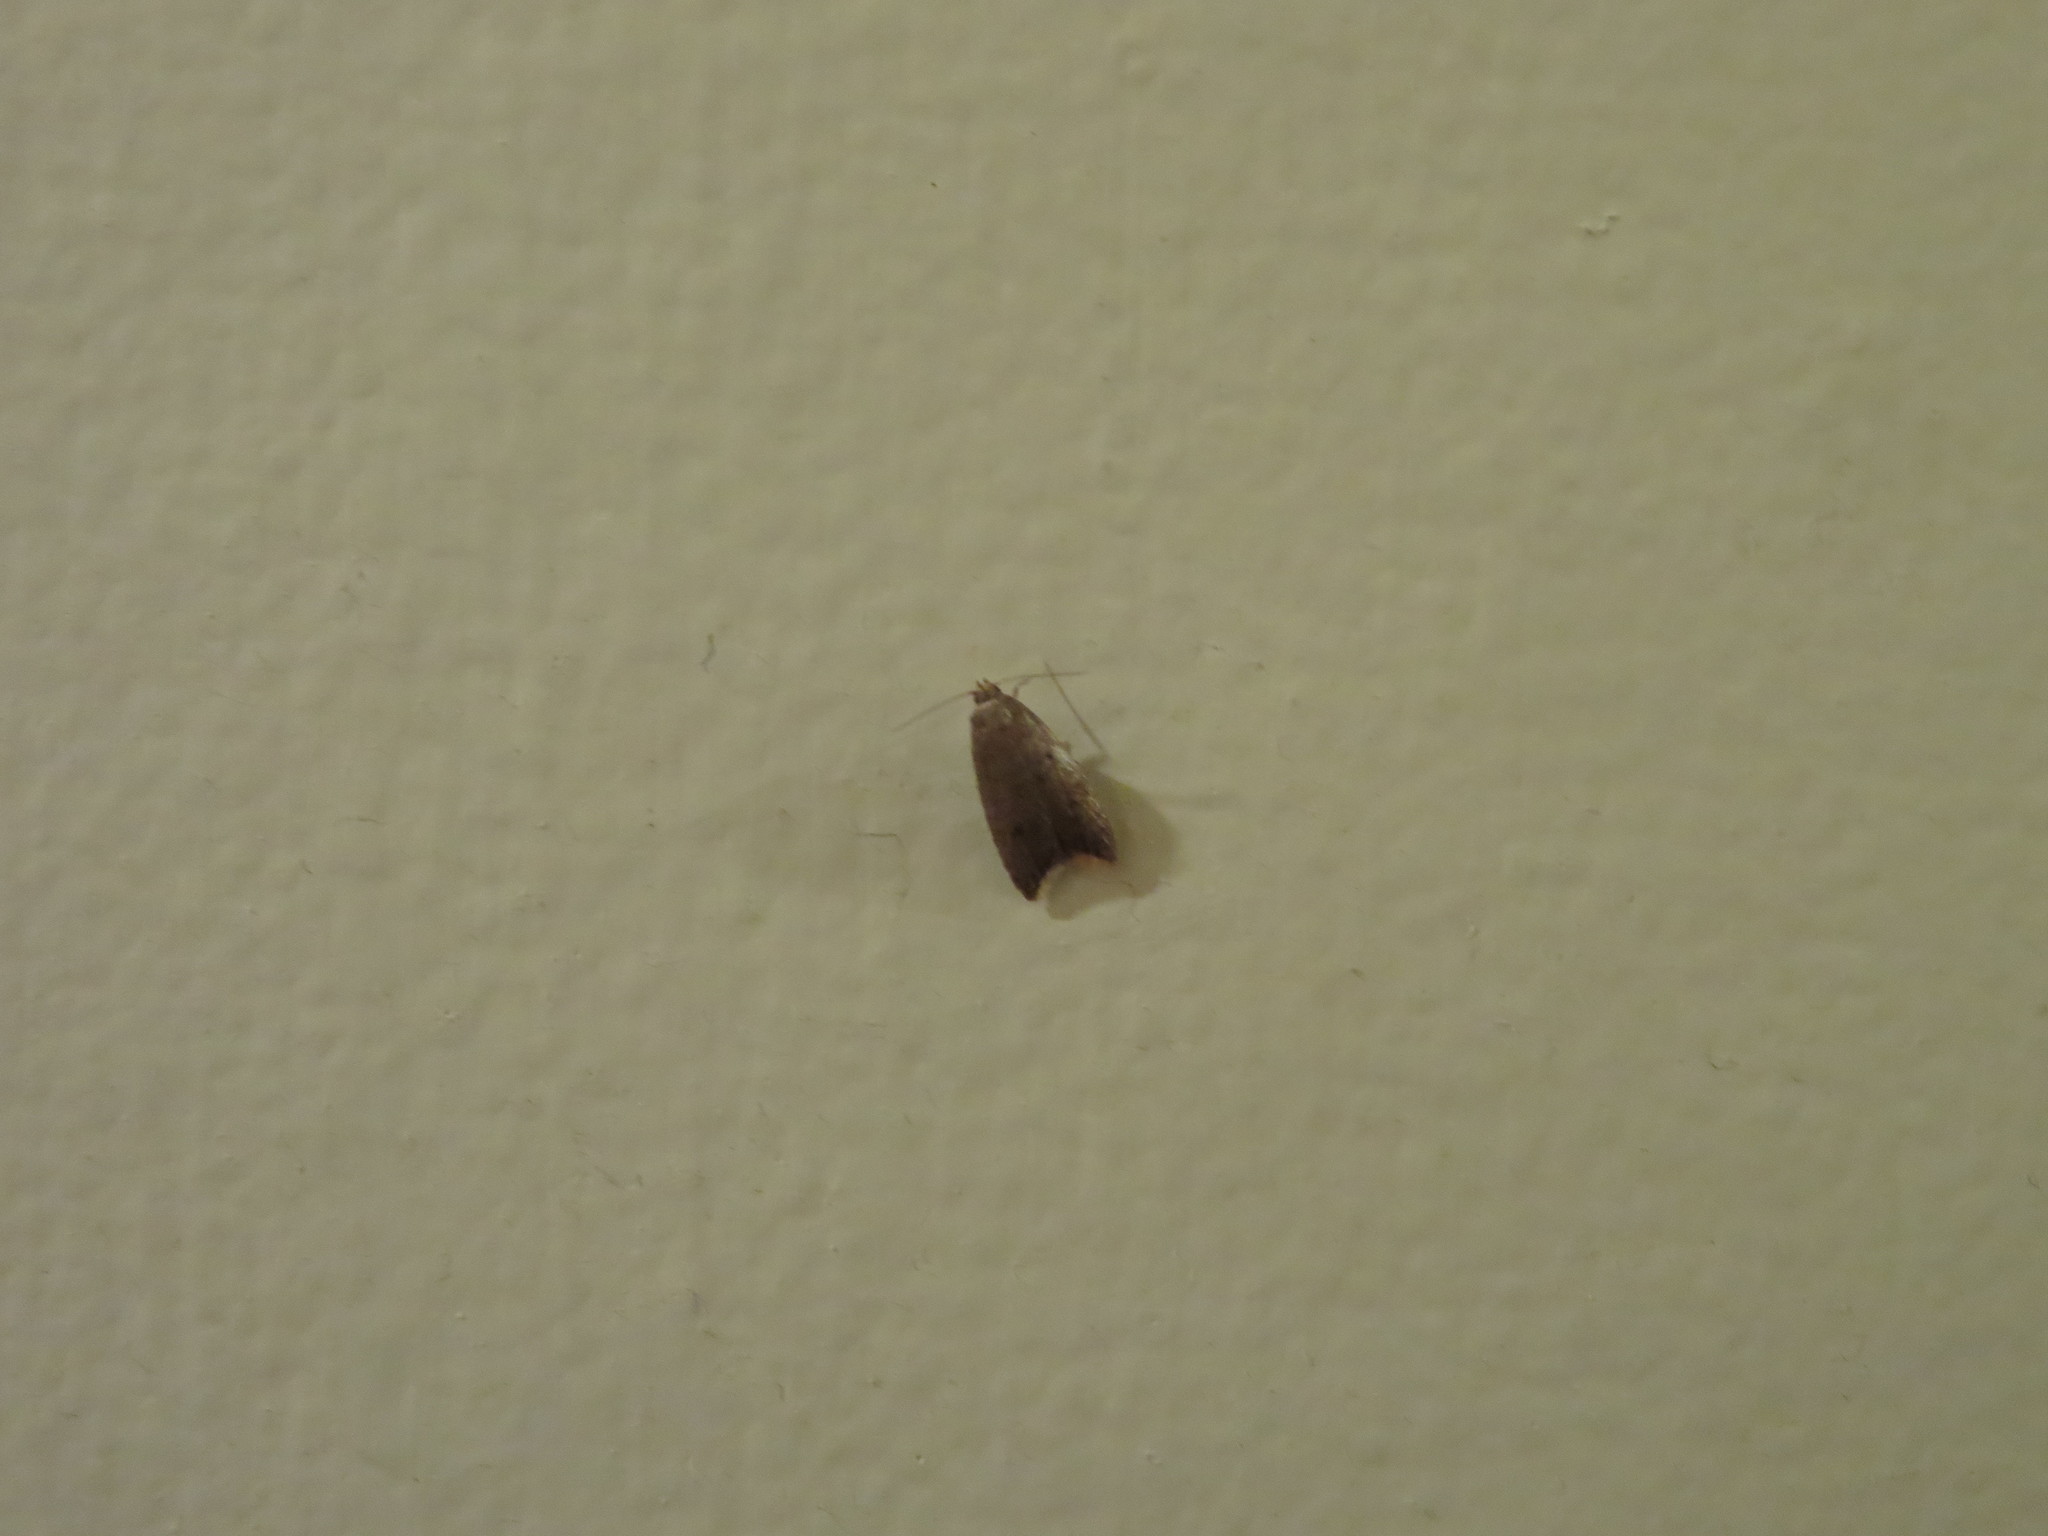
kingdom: Animalia
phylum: Arthropoda
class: Insecta
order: Lepidoptera
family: Oecophoridae
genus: Tachystola
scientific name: Tachystola acroxantha
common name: Ruddy streak
